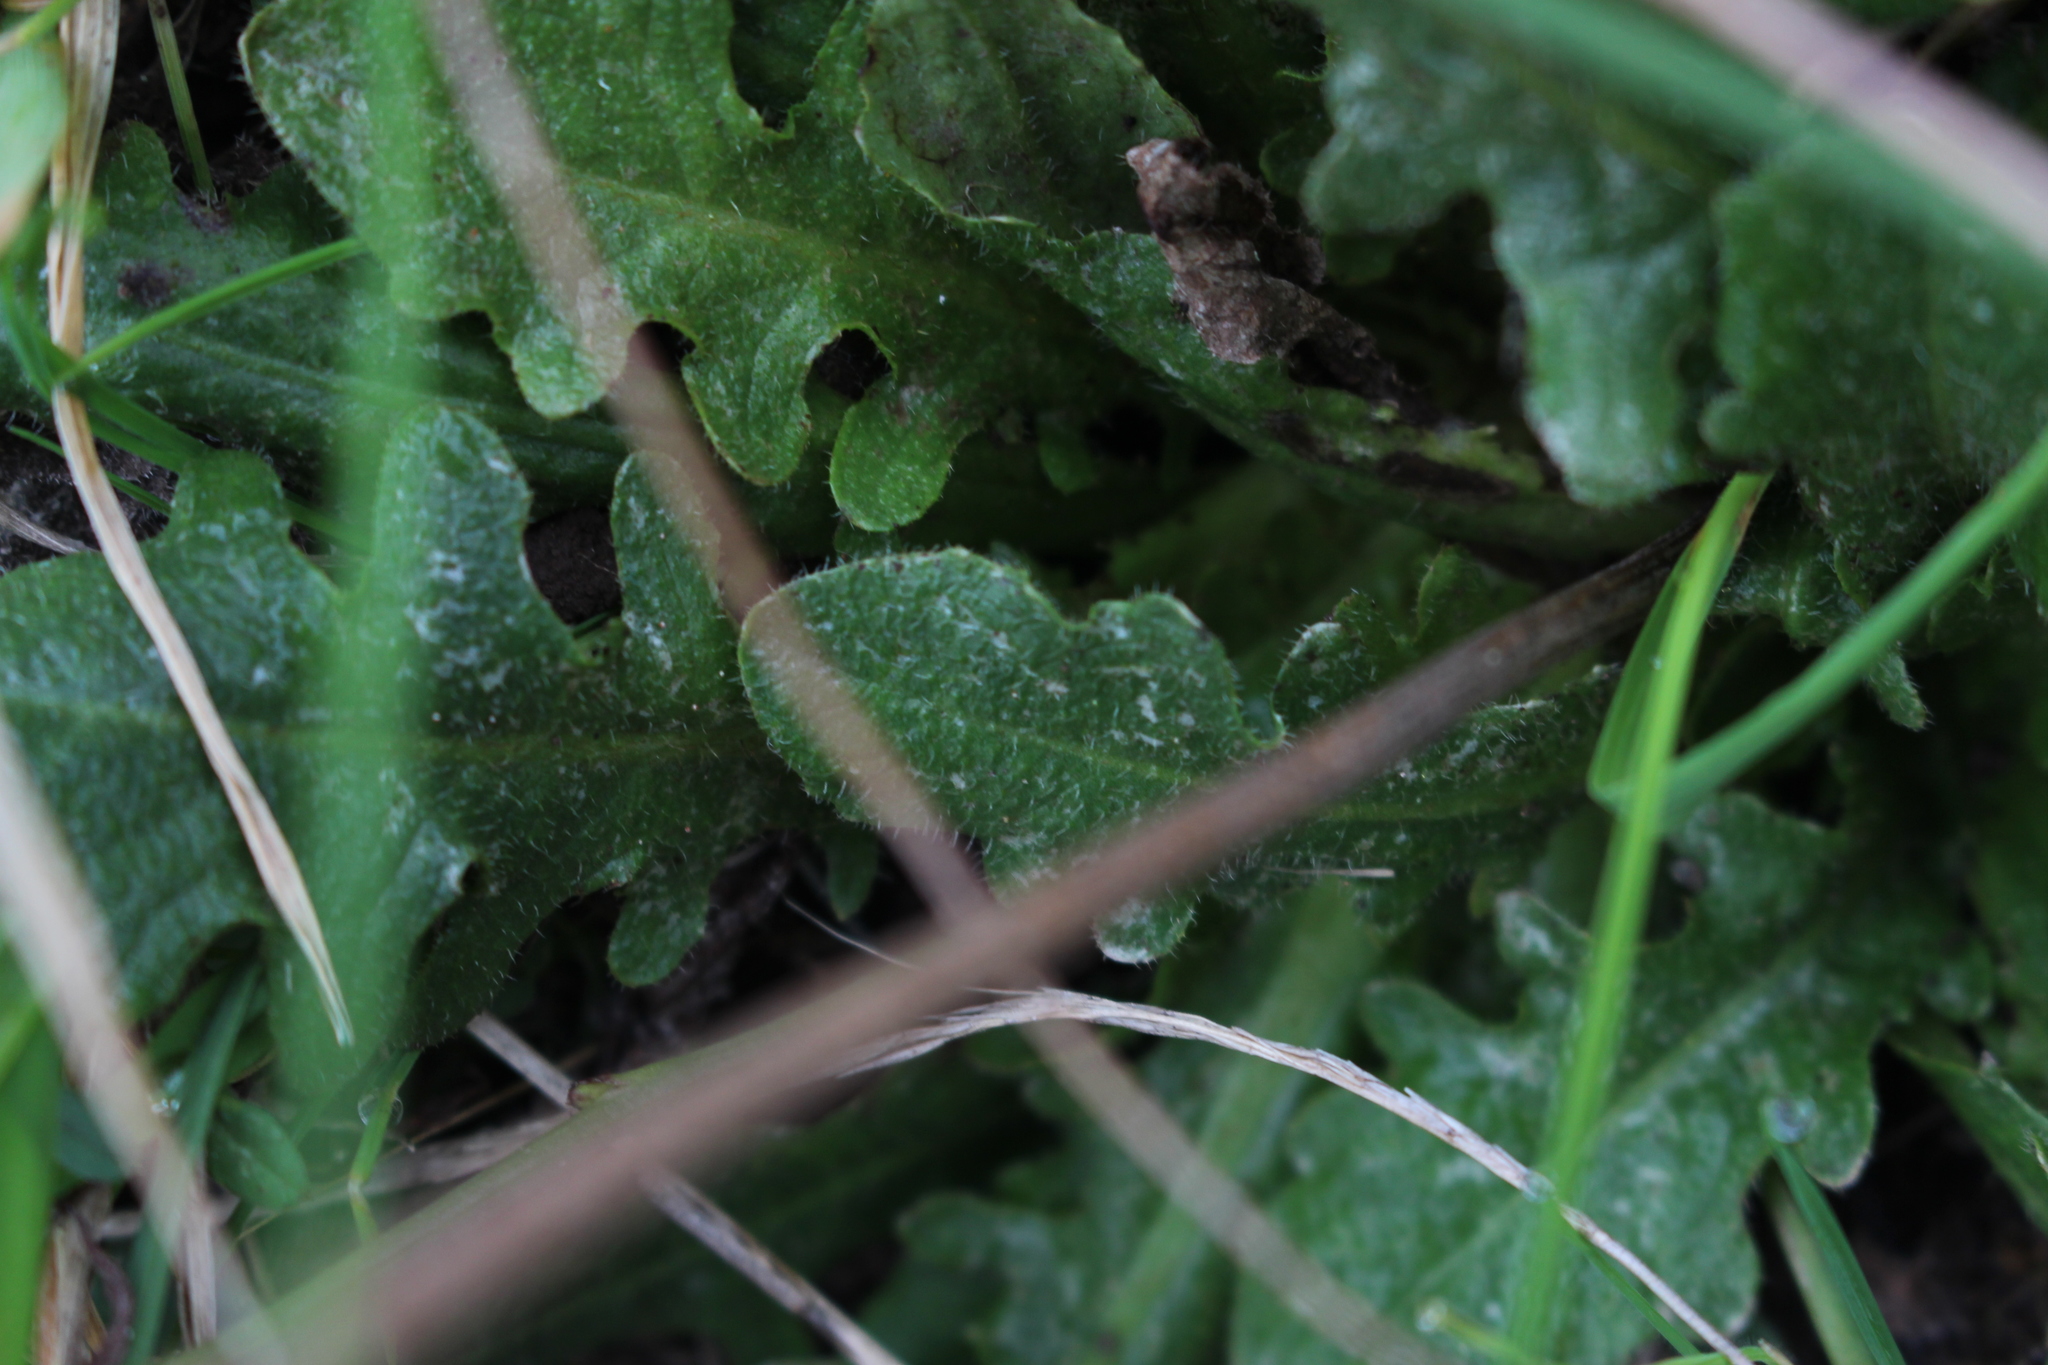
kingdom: Plantae
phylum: Tracheophyta
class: Magnoliopsida
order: Asterales
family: Asteraceae
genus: Hypochaeris
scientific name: Hypochaeris radicata
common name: Flatweed
